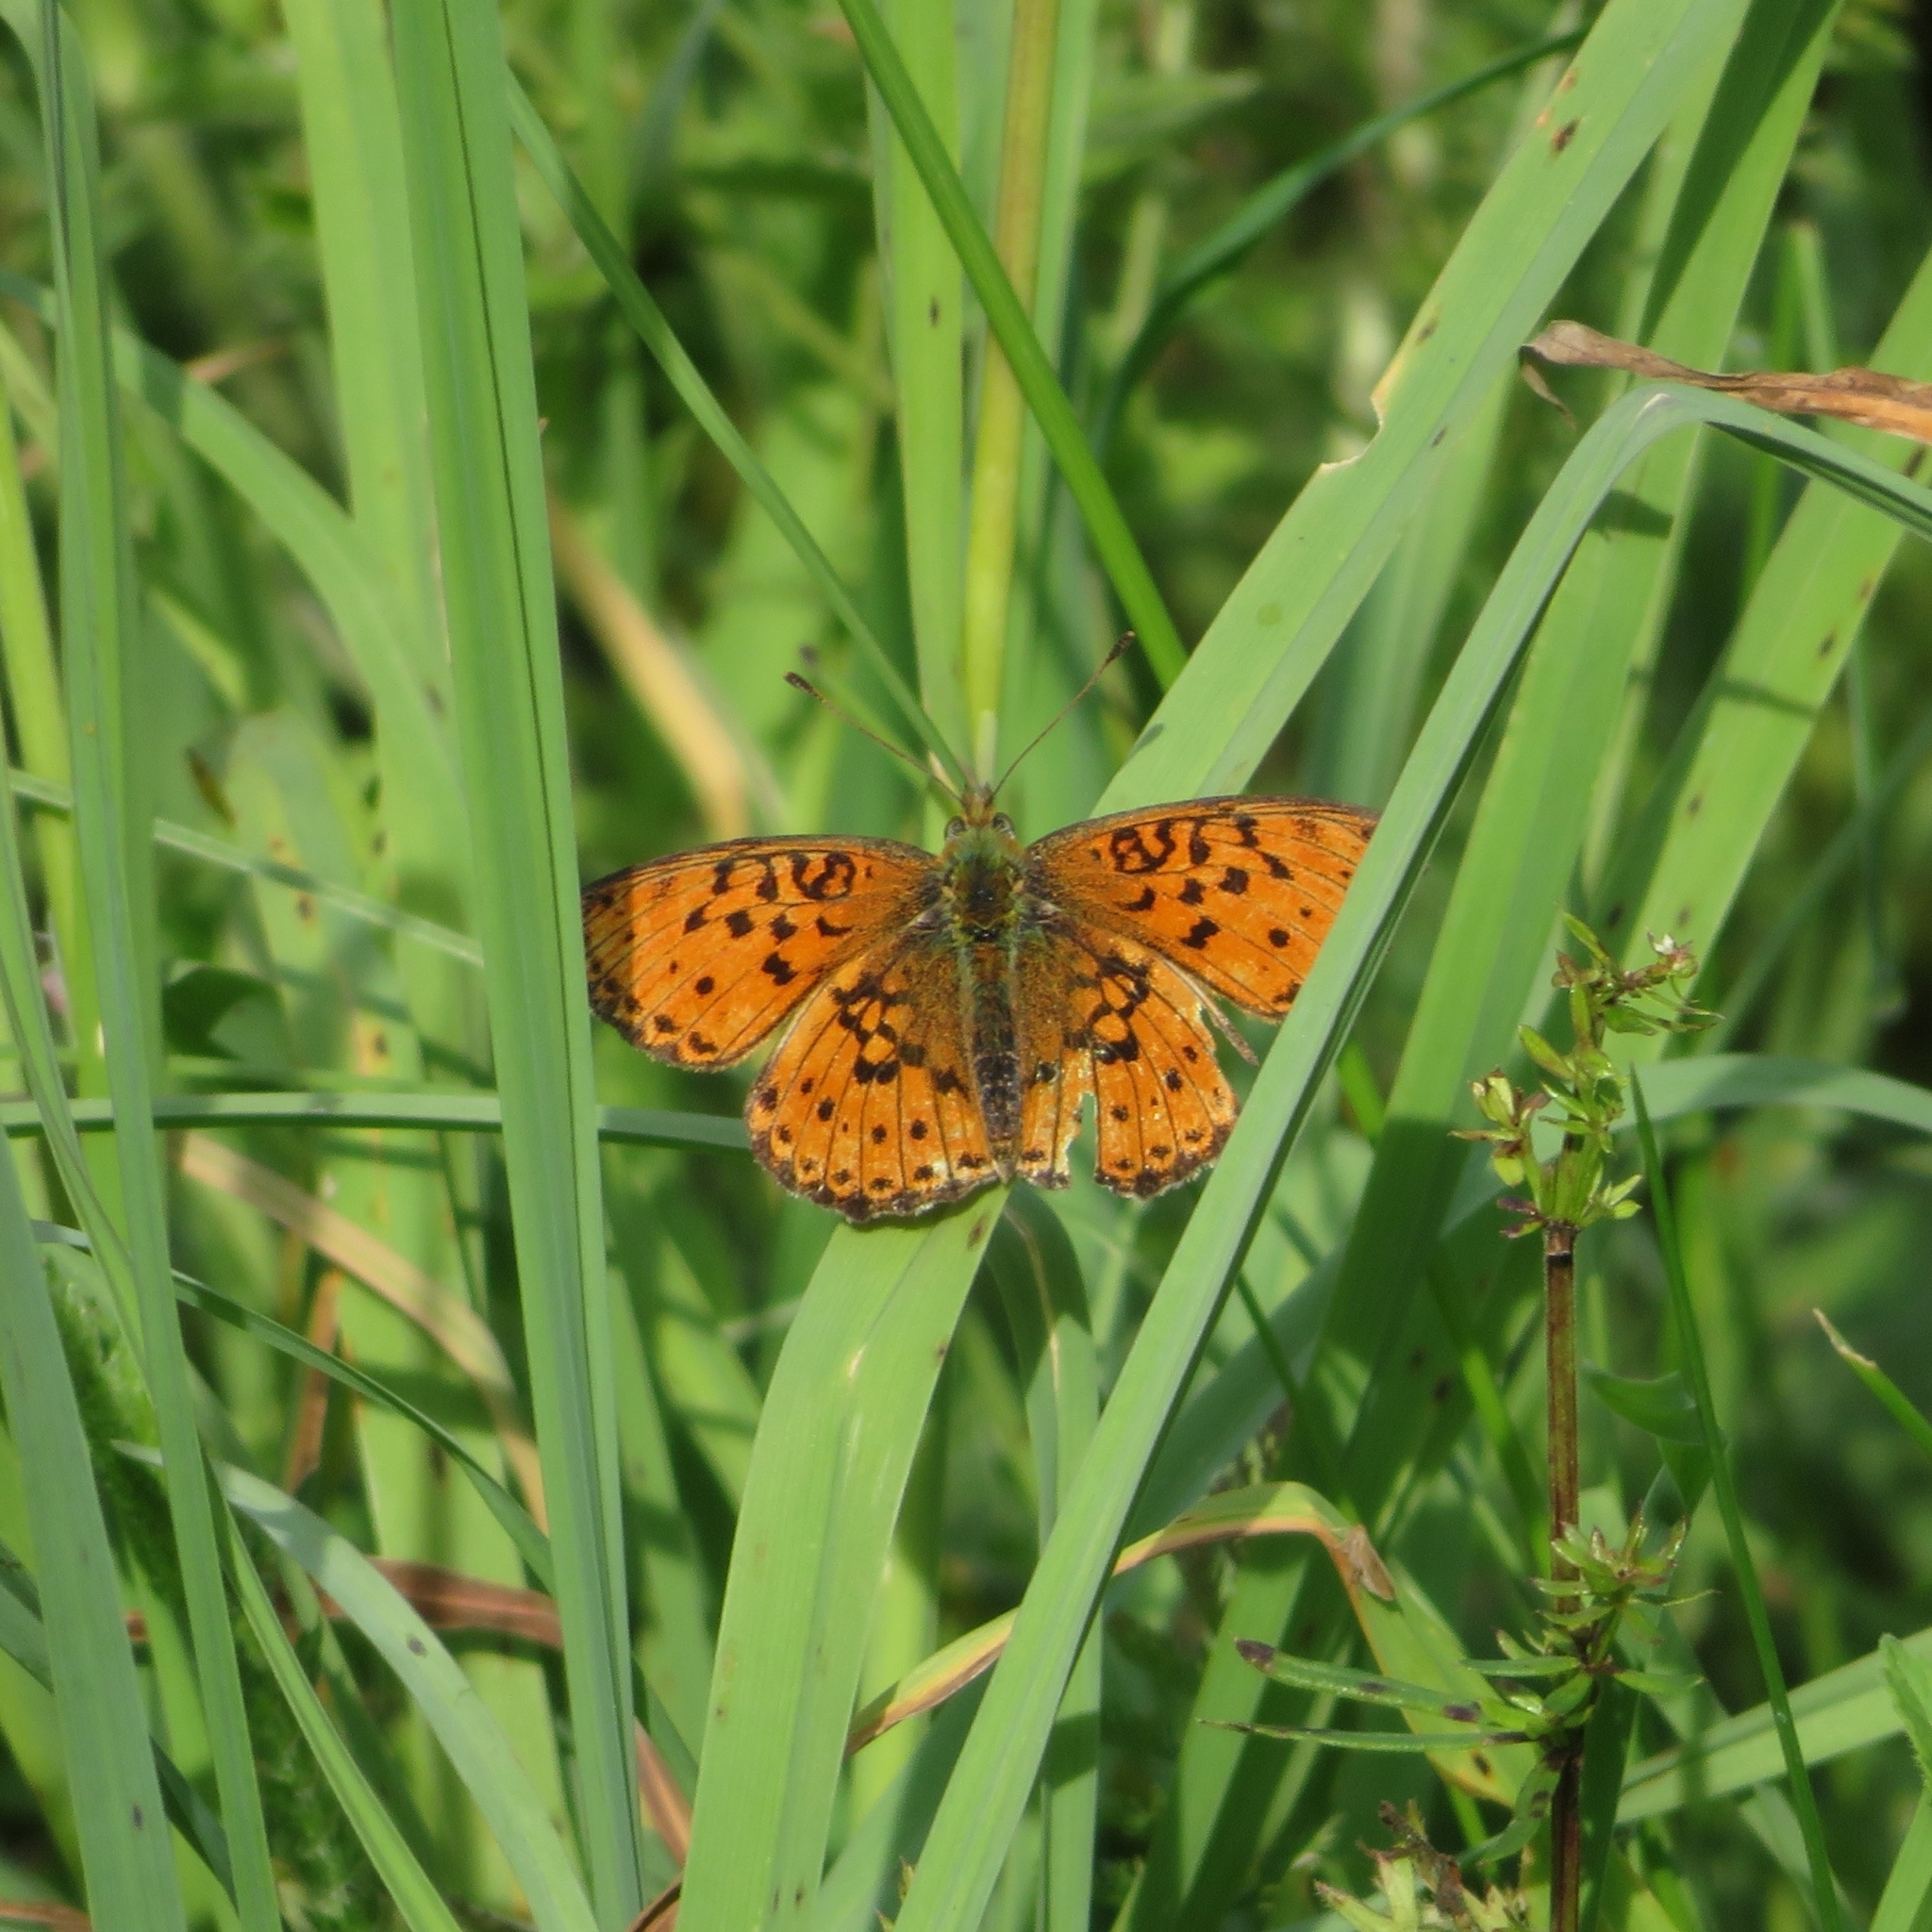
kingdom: Animalia
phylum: Arthropoda
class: Insecta
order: Lepidoptera
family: Nymphalidae
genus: Brenthis
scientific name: Brenthis ino
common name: Lesser marbled fritillary
